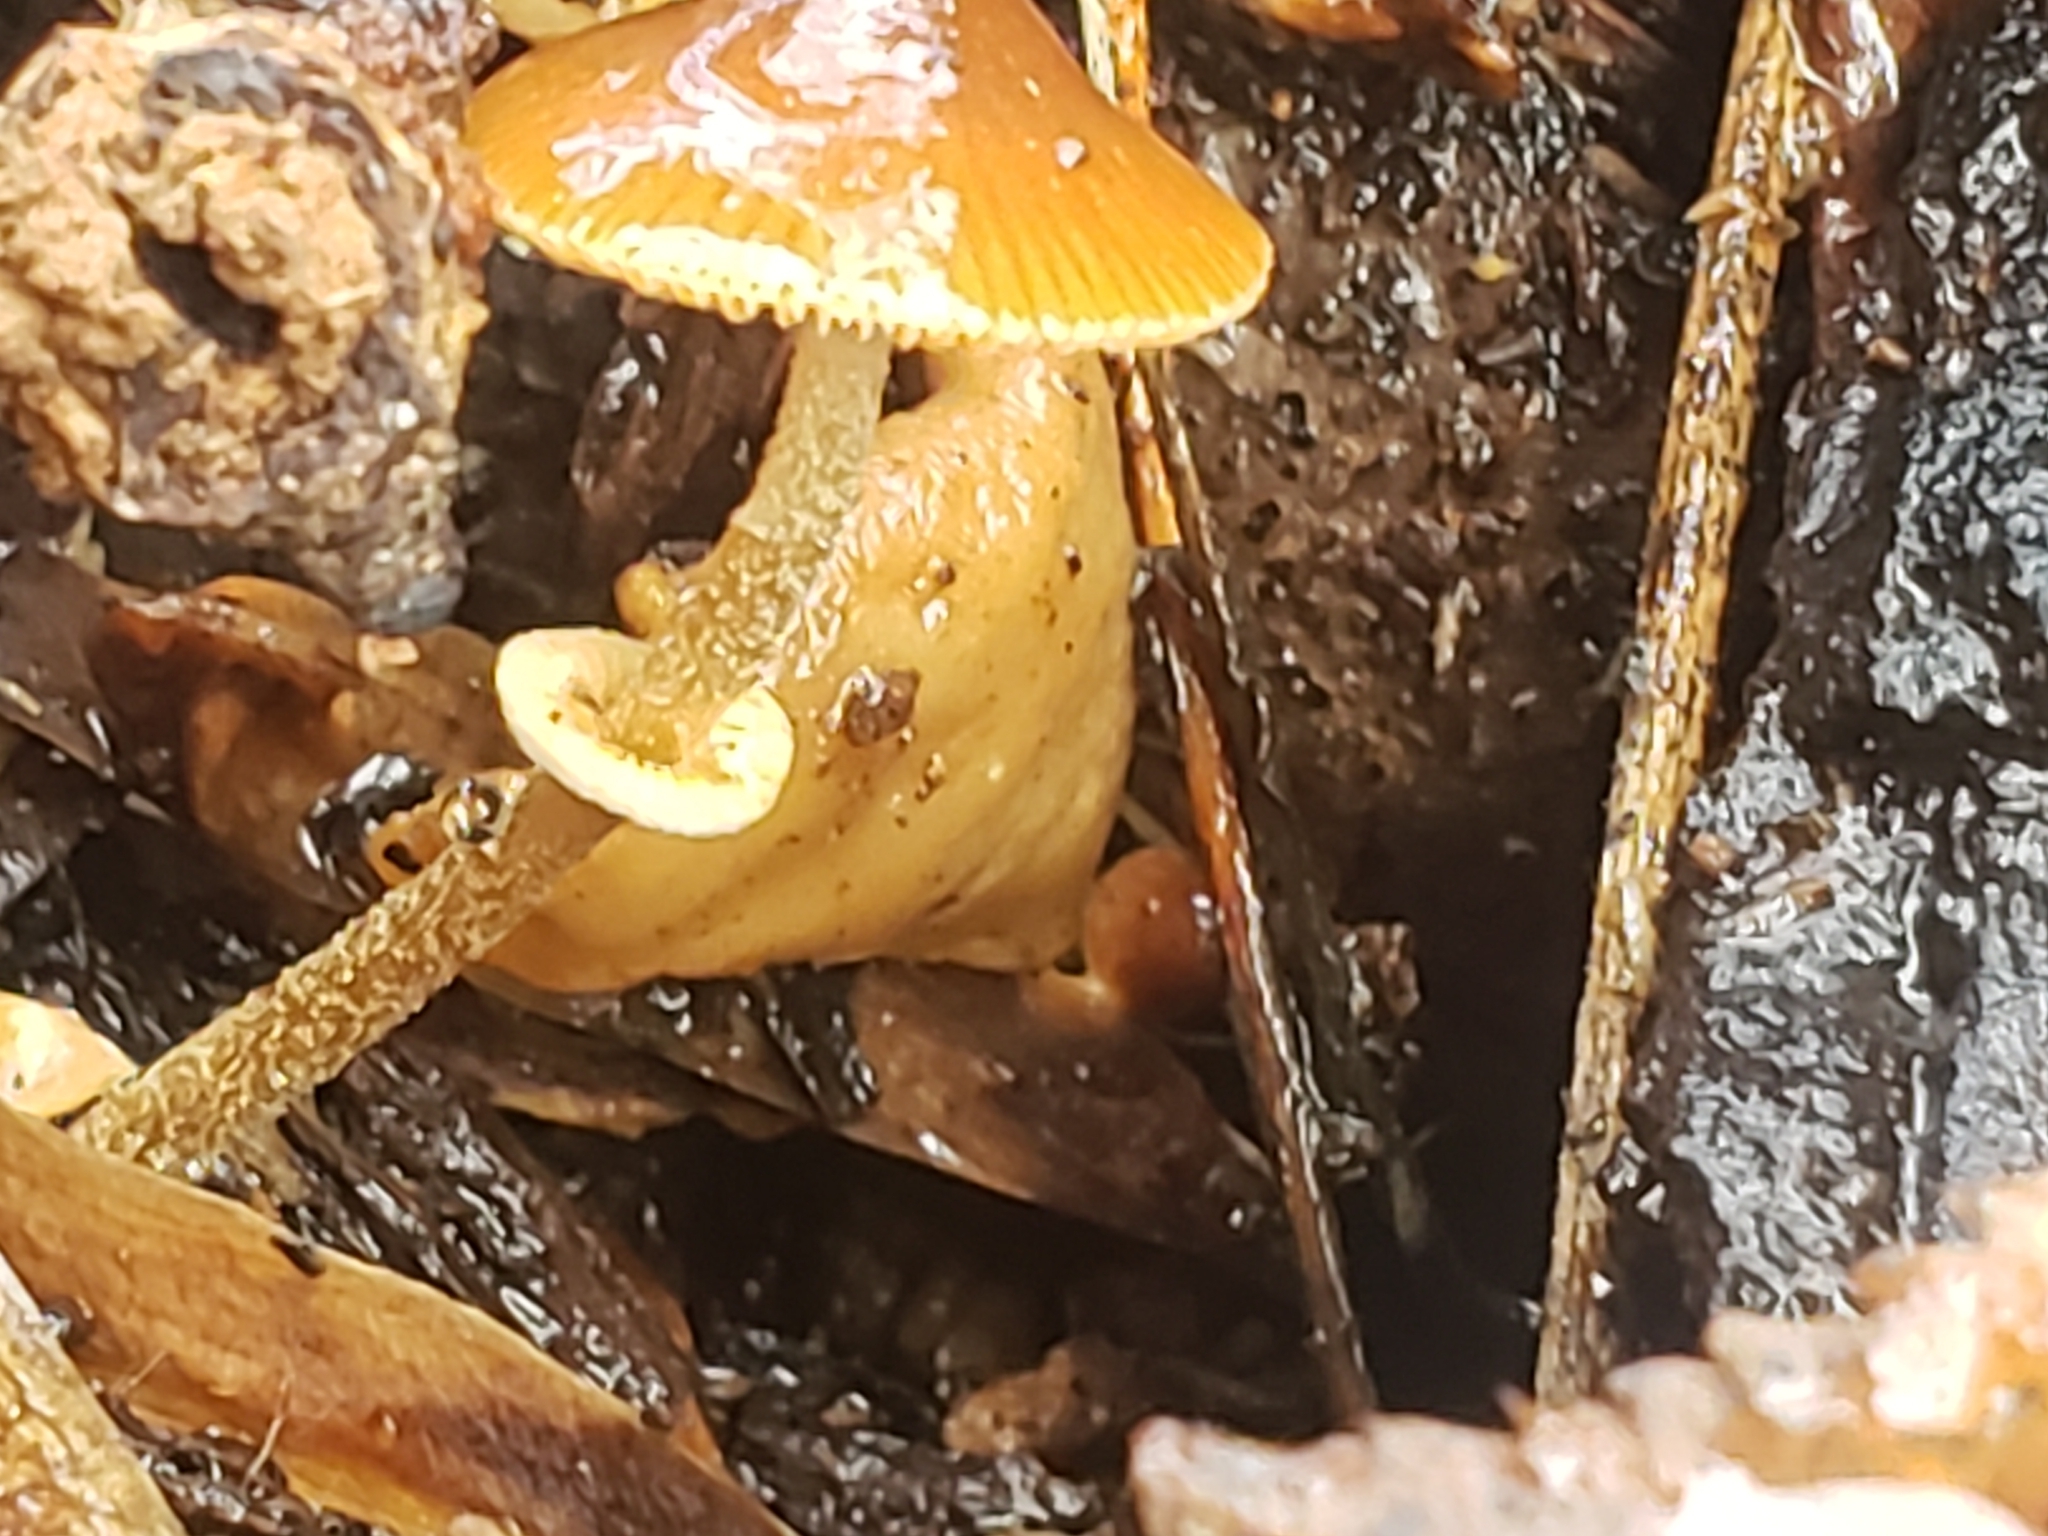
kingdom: Fungi
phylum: Basidiomycota
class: Agaricomycetes
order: Agaricales
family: Bolbitiaceae
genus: Conocybe
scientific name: Conocybe rugosa
